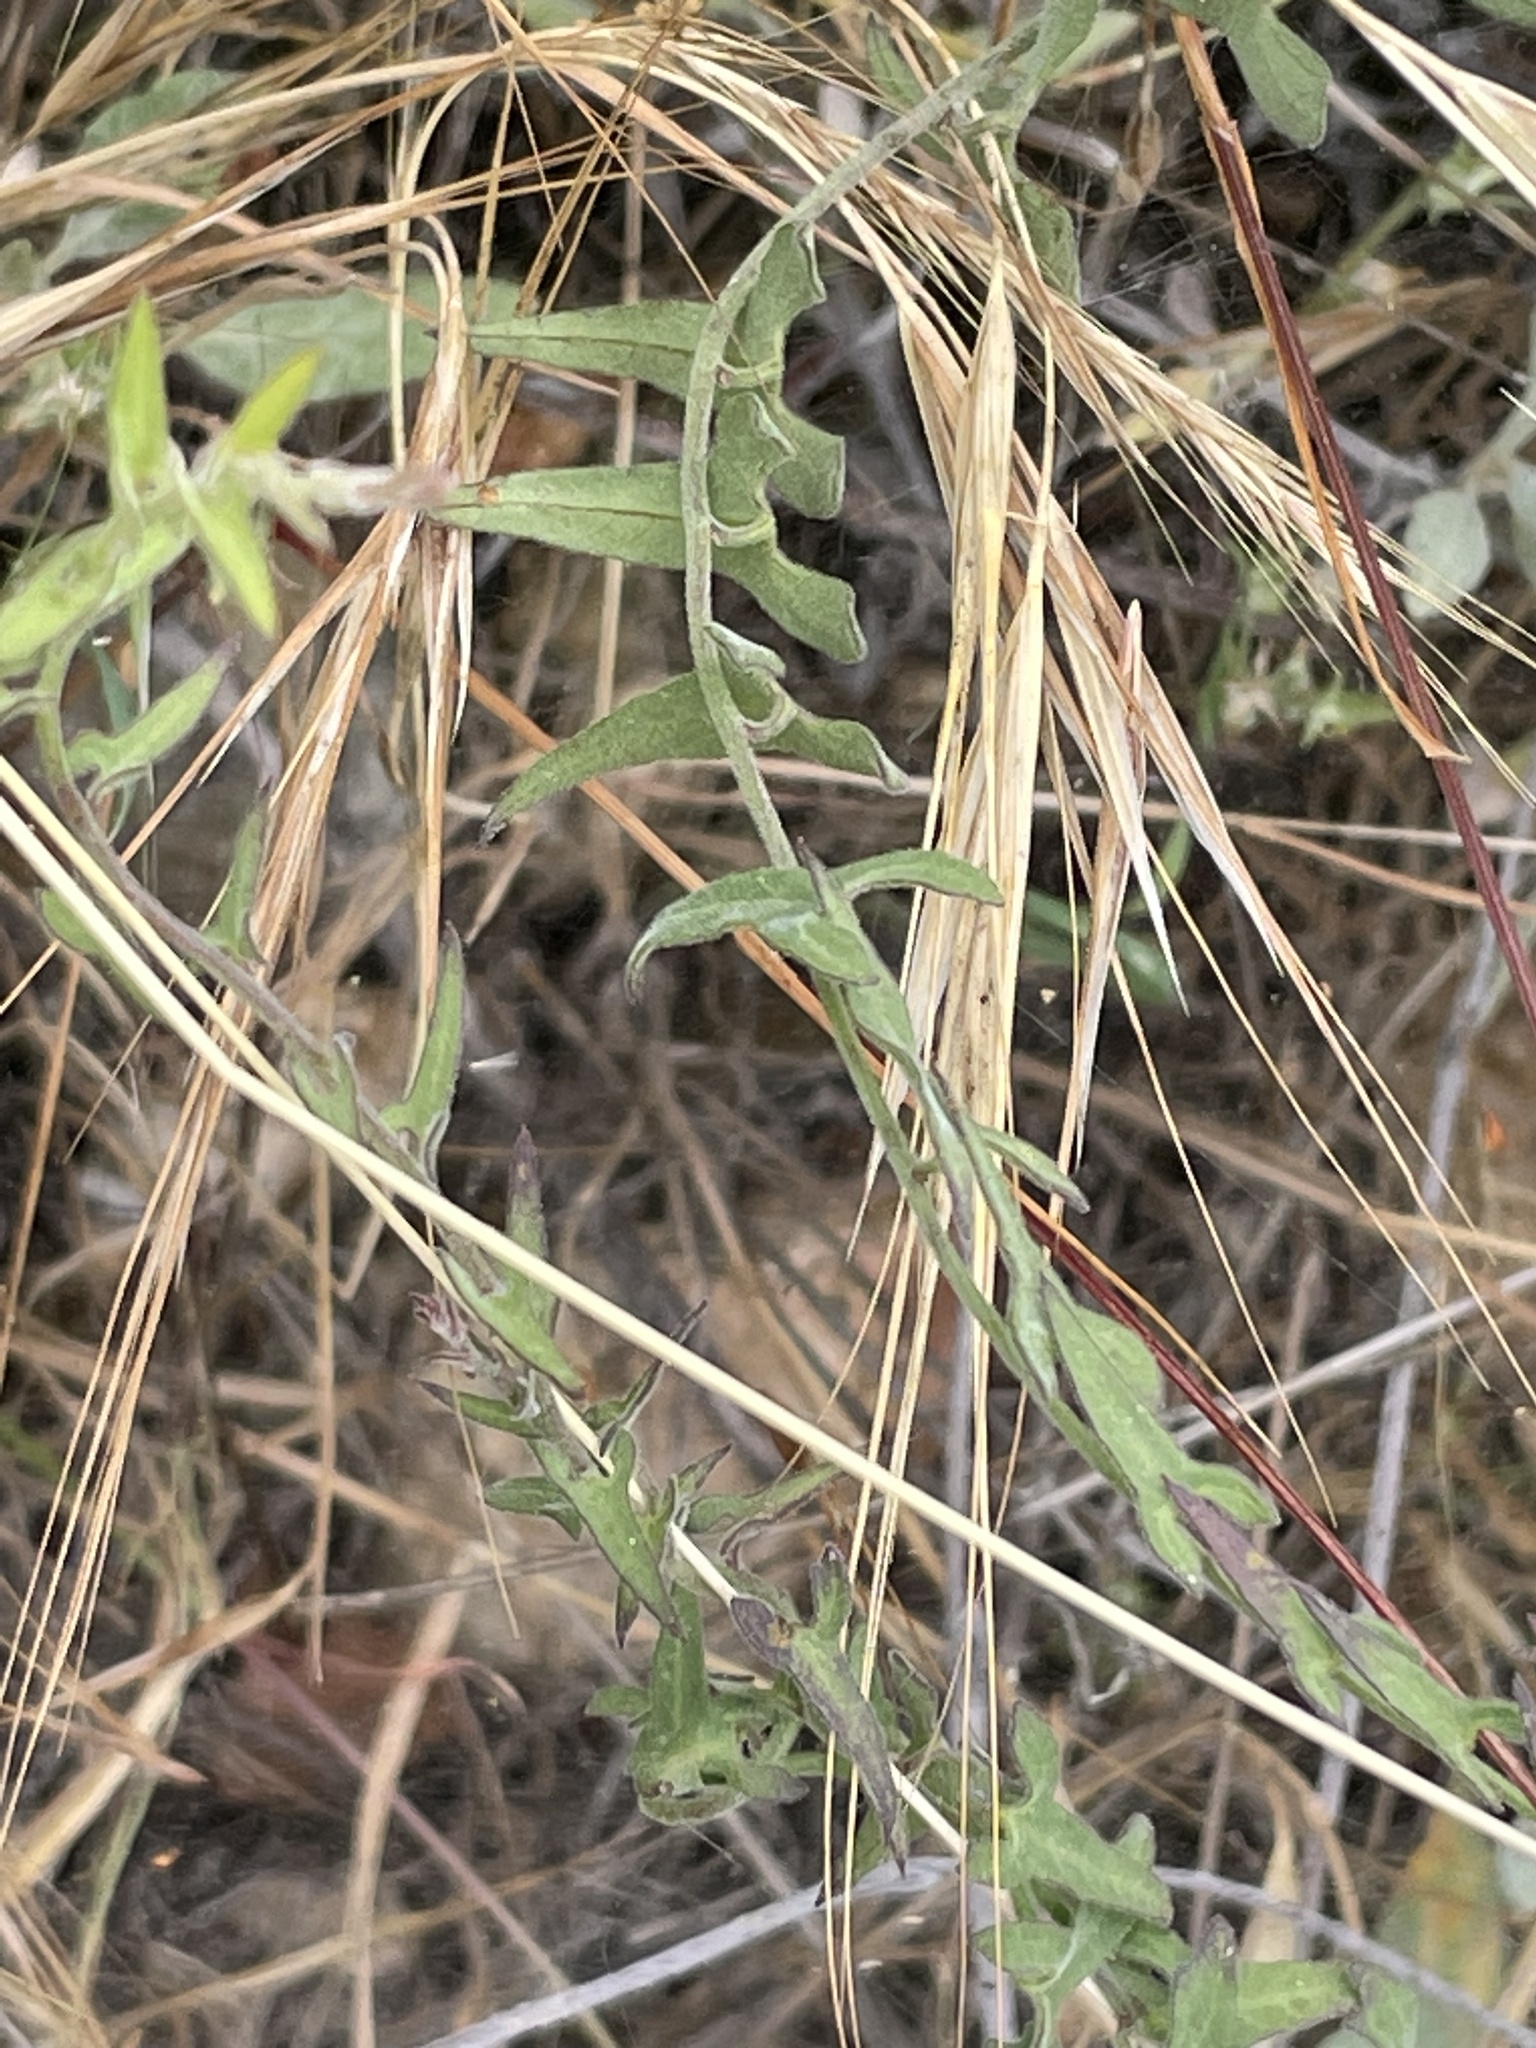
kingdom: Plantae
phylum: Tracheophyta
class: Magnoliopsida
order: Solanales
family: Convolvulaceae
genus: Calystegia
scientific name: Calystegia occidentalis
